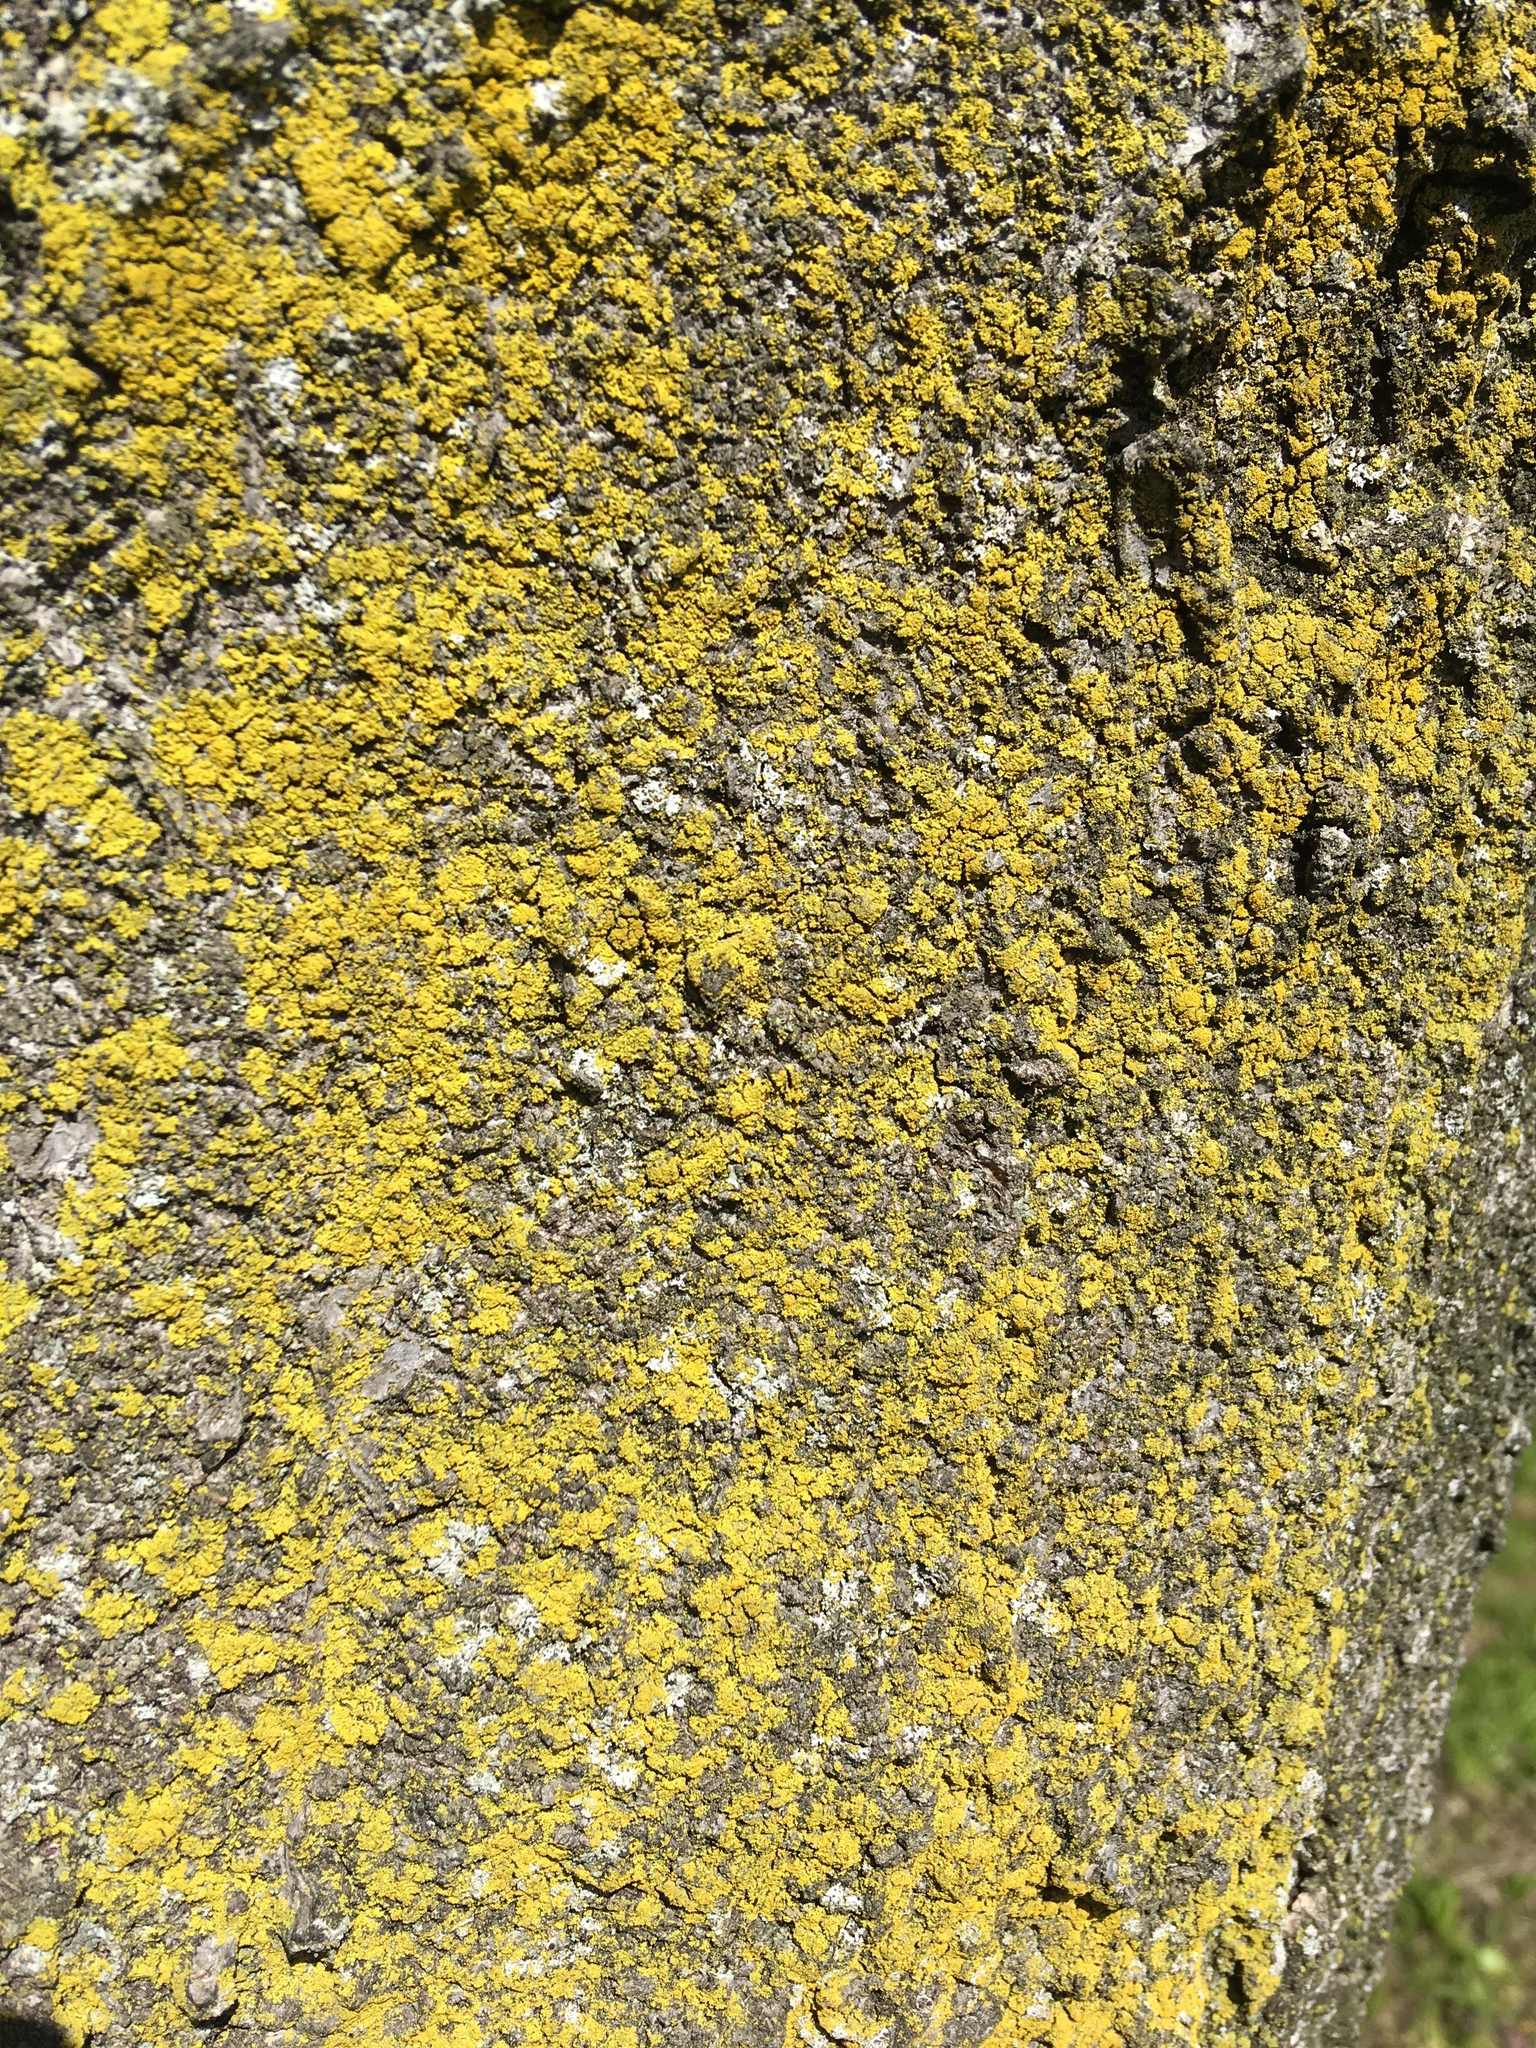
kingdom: Fungi
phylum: Ascomycota
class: Candelariomycetes
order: Candelariales
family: Candelariaceae
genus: Candelaria
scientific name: Candelaria concolor
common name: Candleflame lichen
